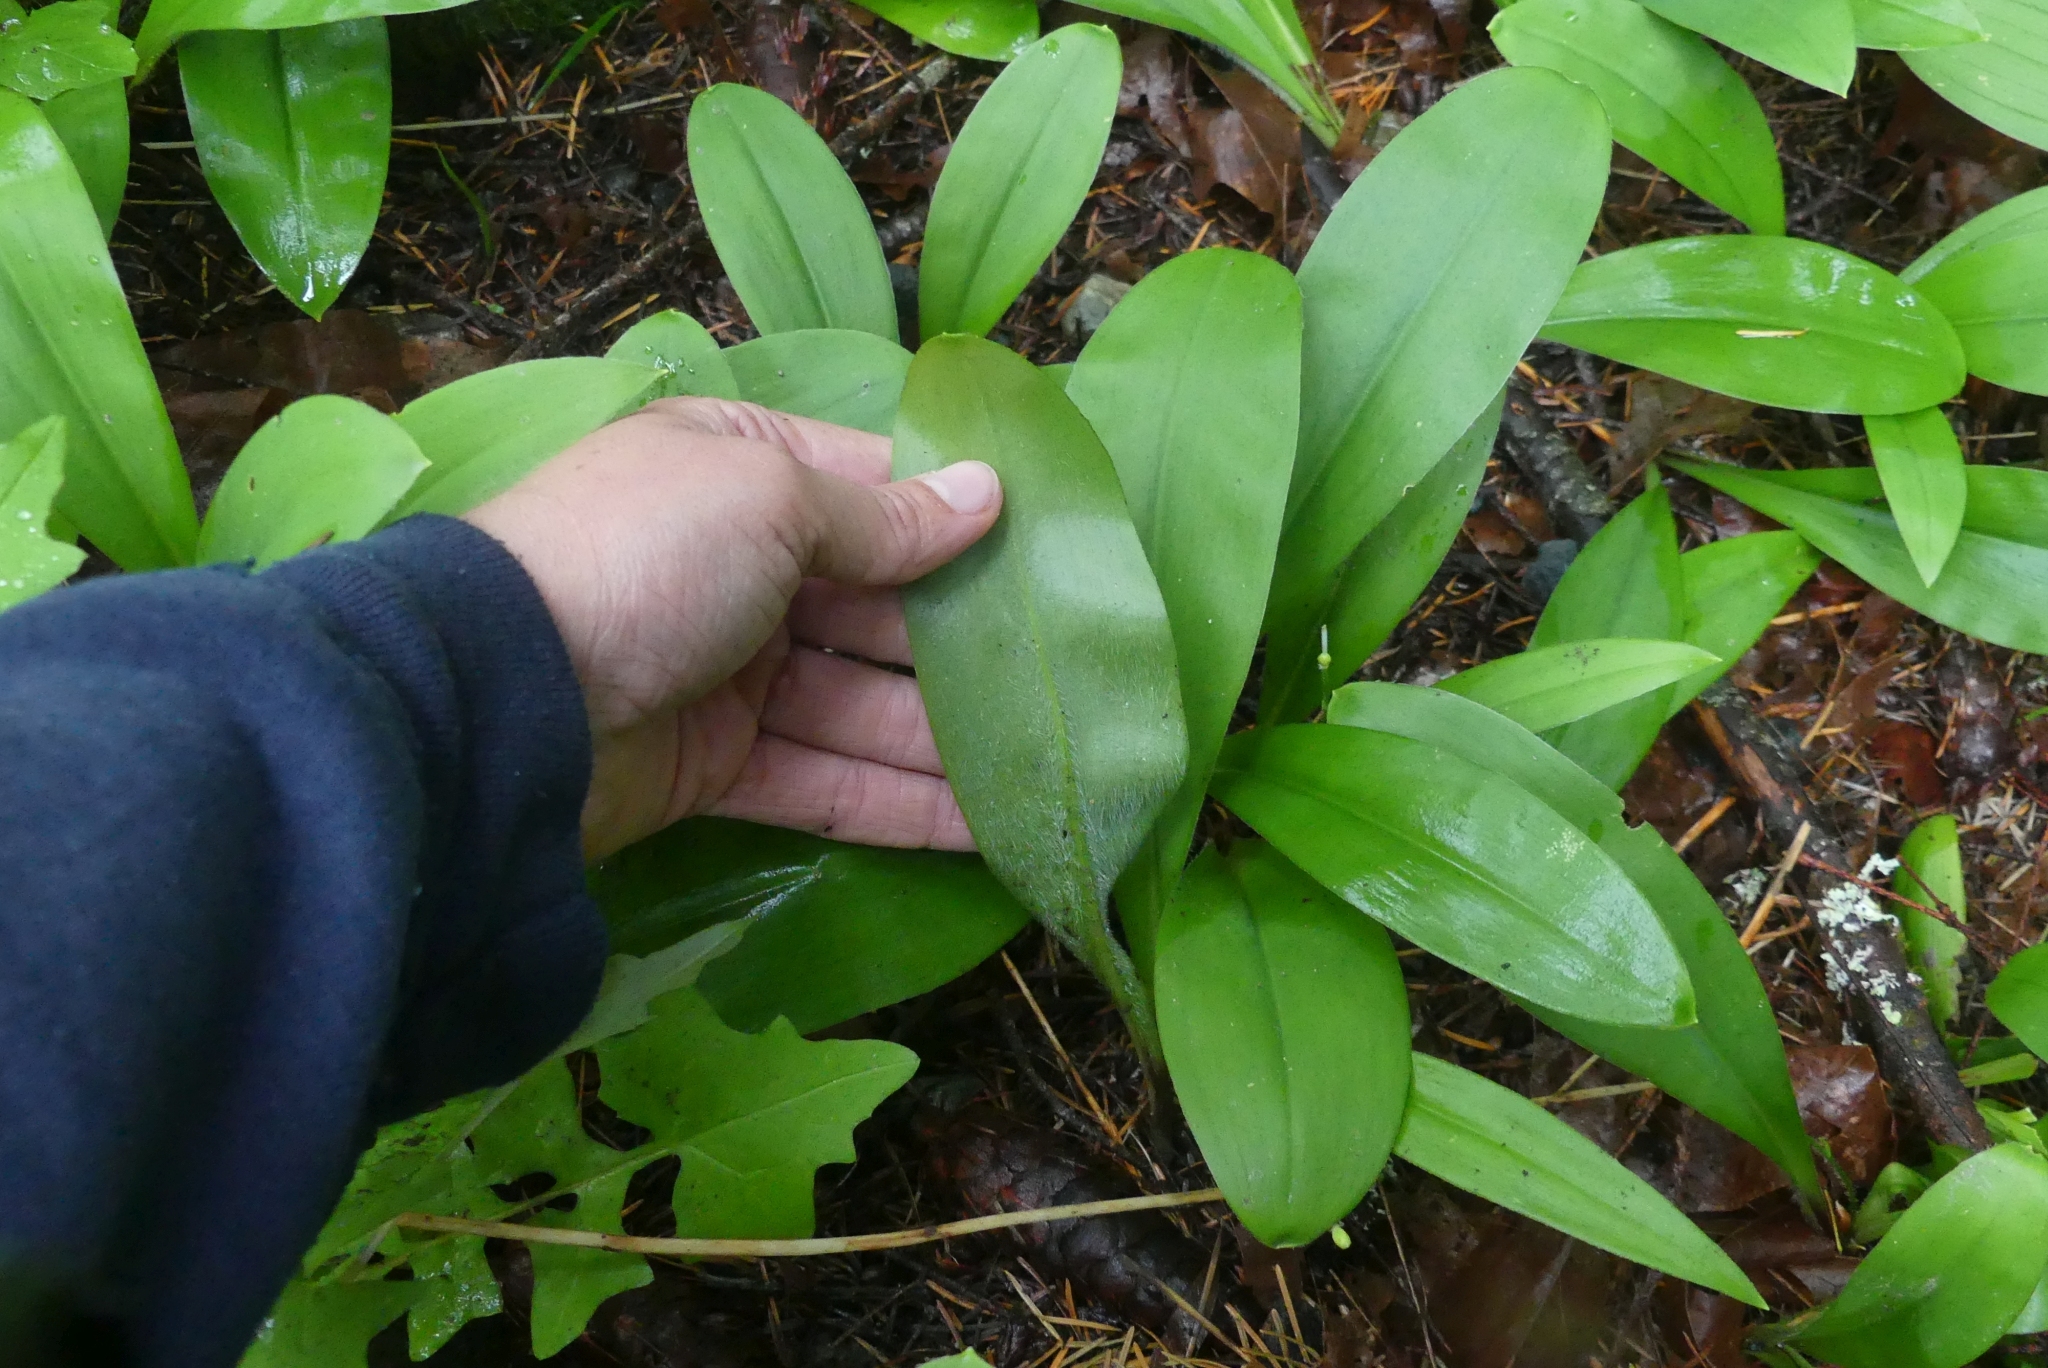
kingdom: Plantae
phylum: Tracheophyta
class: Liliopsida
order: Liliales
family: Liliaceae
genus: Clintonia
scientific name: Clintonia uniflora
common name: Queen's cup
